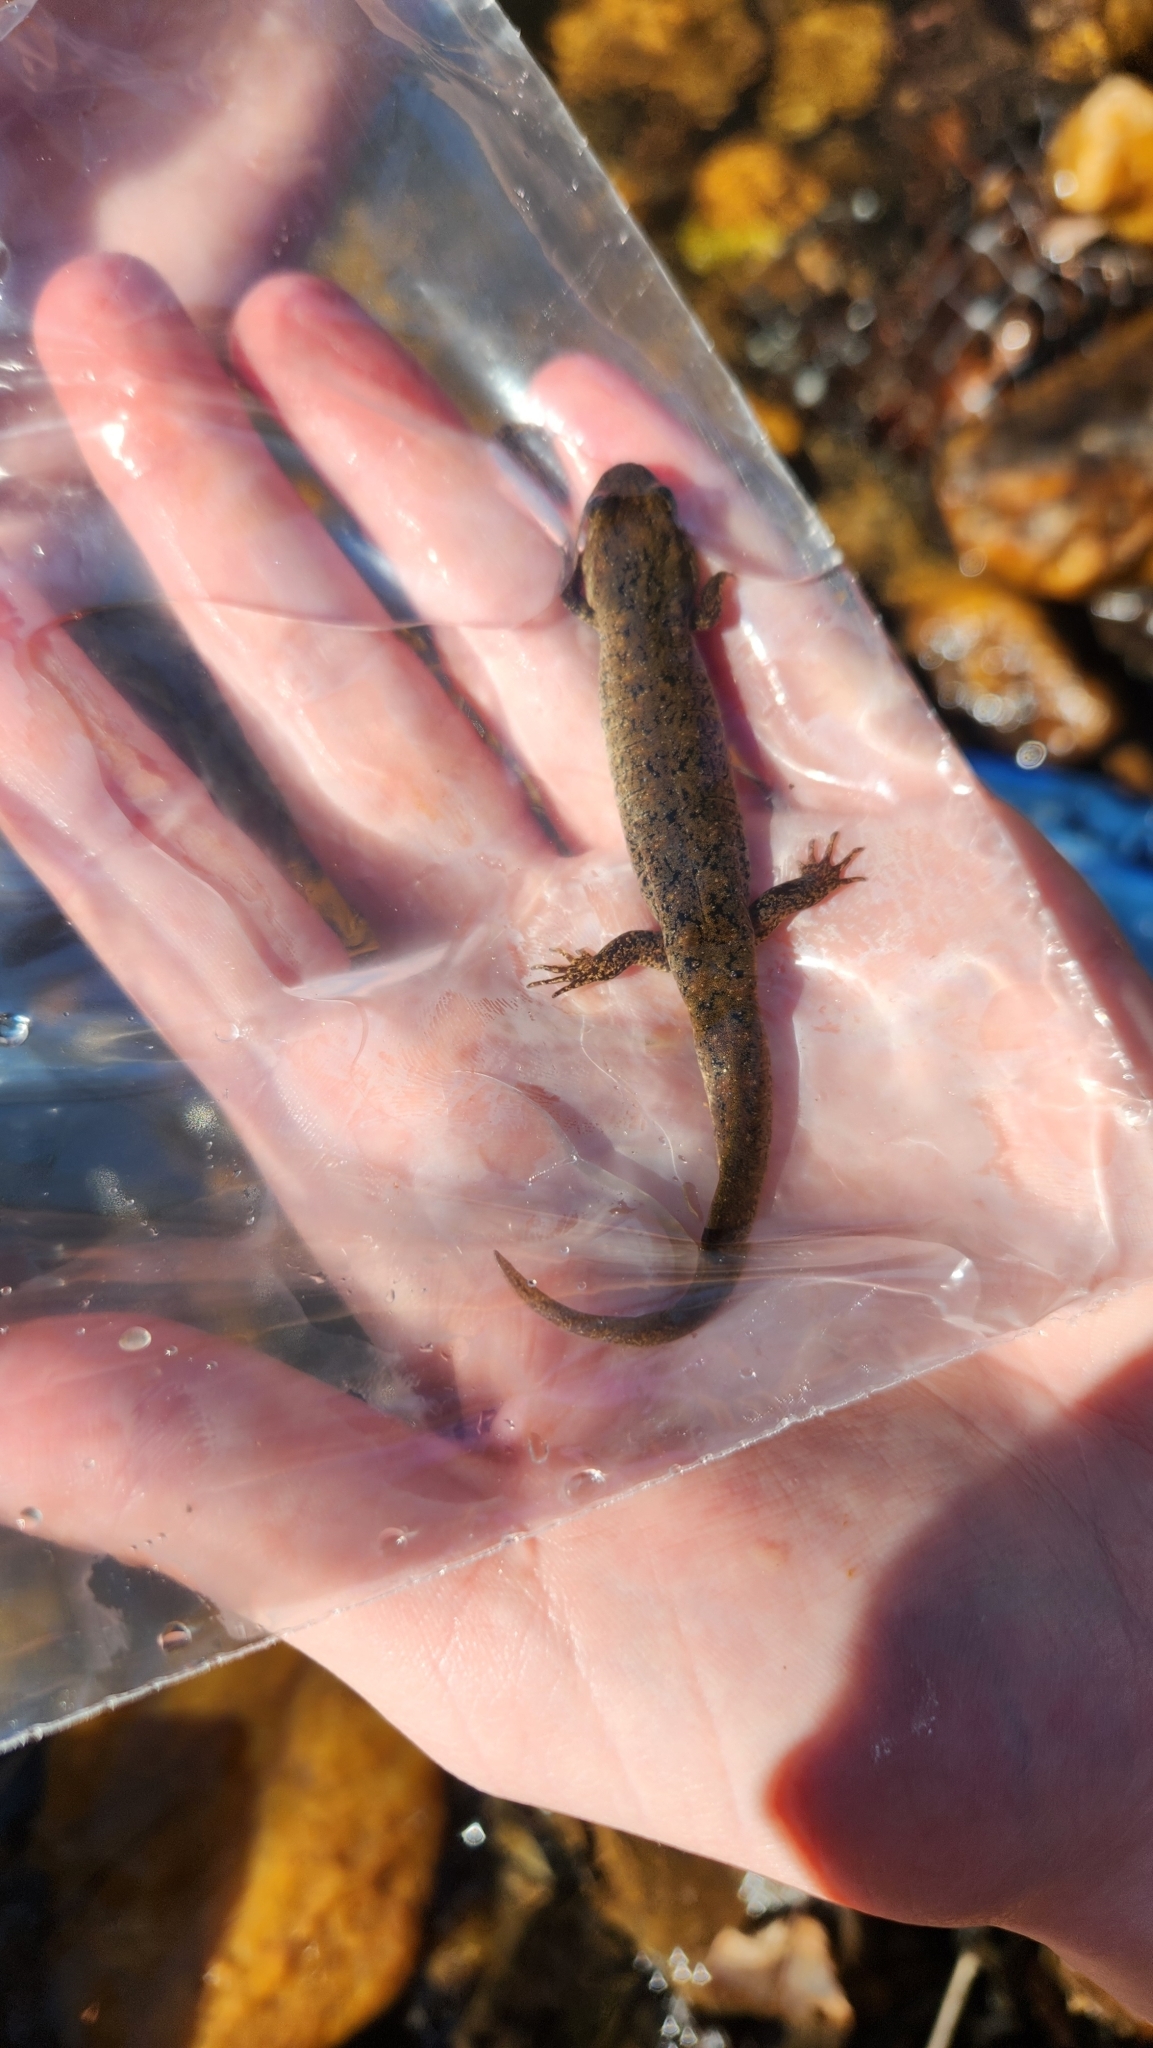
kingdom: Animalia
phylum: Chordata
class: Amphibia
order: Caudata
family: Plethodontidae
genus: Desmognathus
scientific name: Desmognathus
